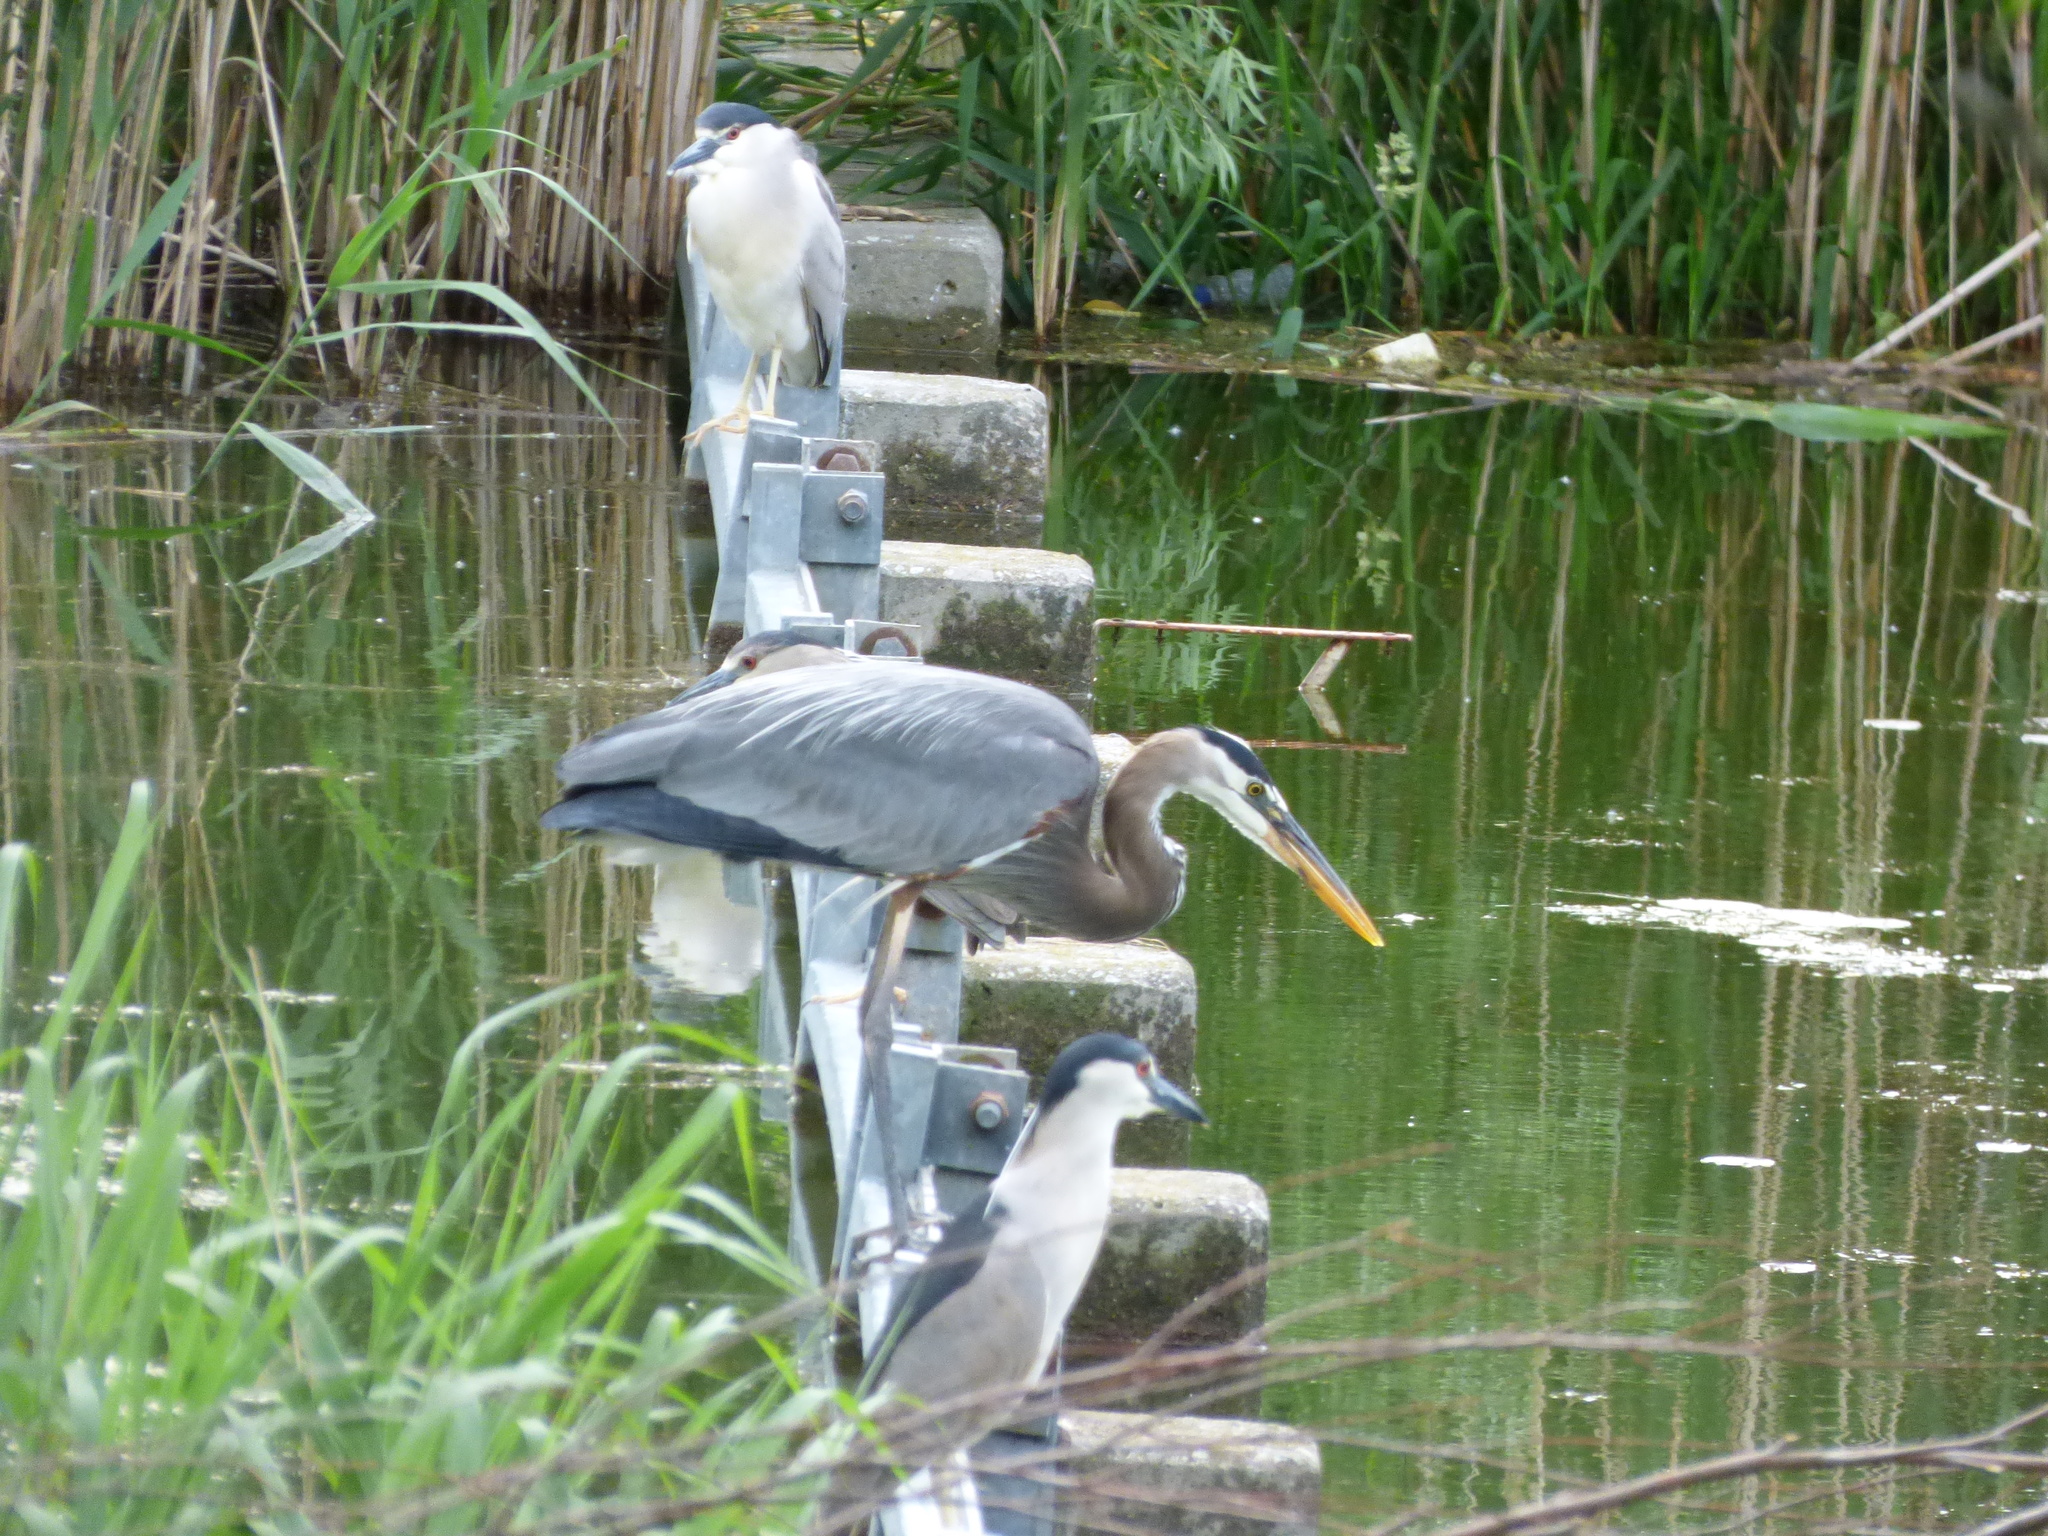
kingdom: Animalia
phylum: Chordata
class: Aves
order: Pelecaniformes
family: Ardeidae
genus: Ardea
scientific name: Ardea herodias
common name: Great blue heron
